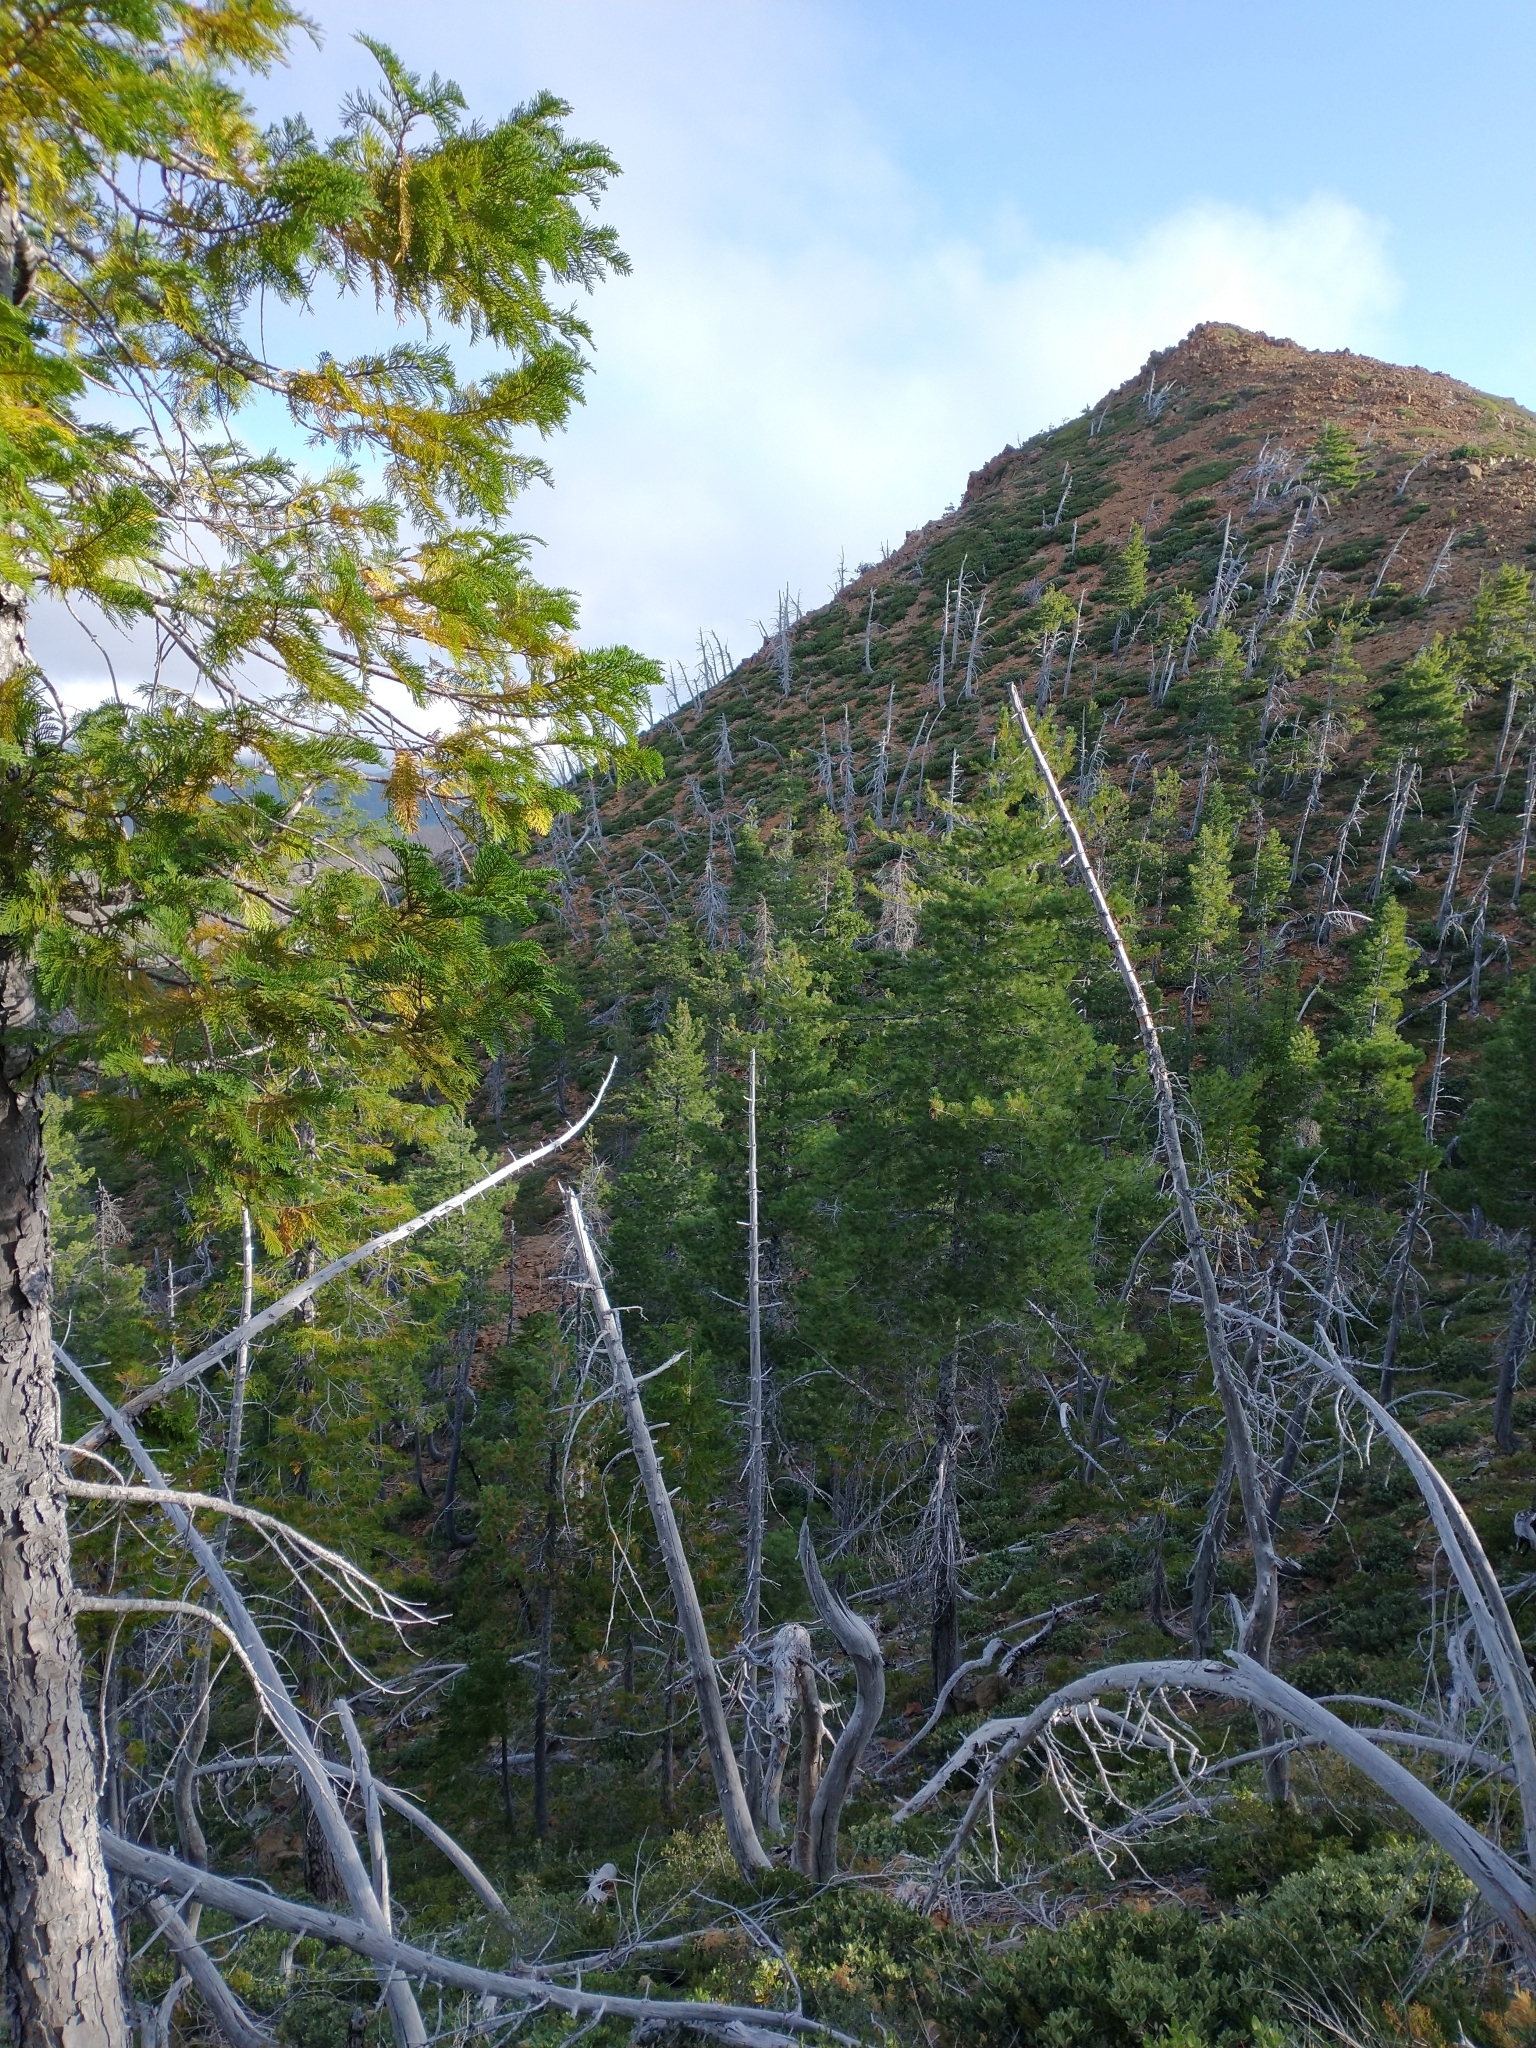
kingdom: Plantae
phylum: Tracheophyta
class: Pinopsida
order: Pinales
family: Cupressaceae
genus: Chamaecyparis
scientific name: Chamaecyparis lawsoniana
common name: Lawson's cypress
